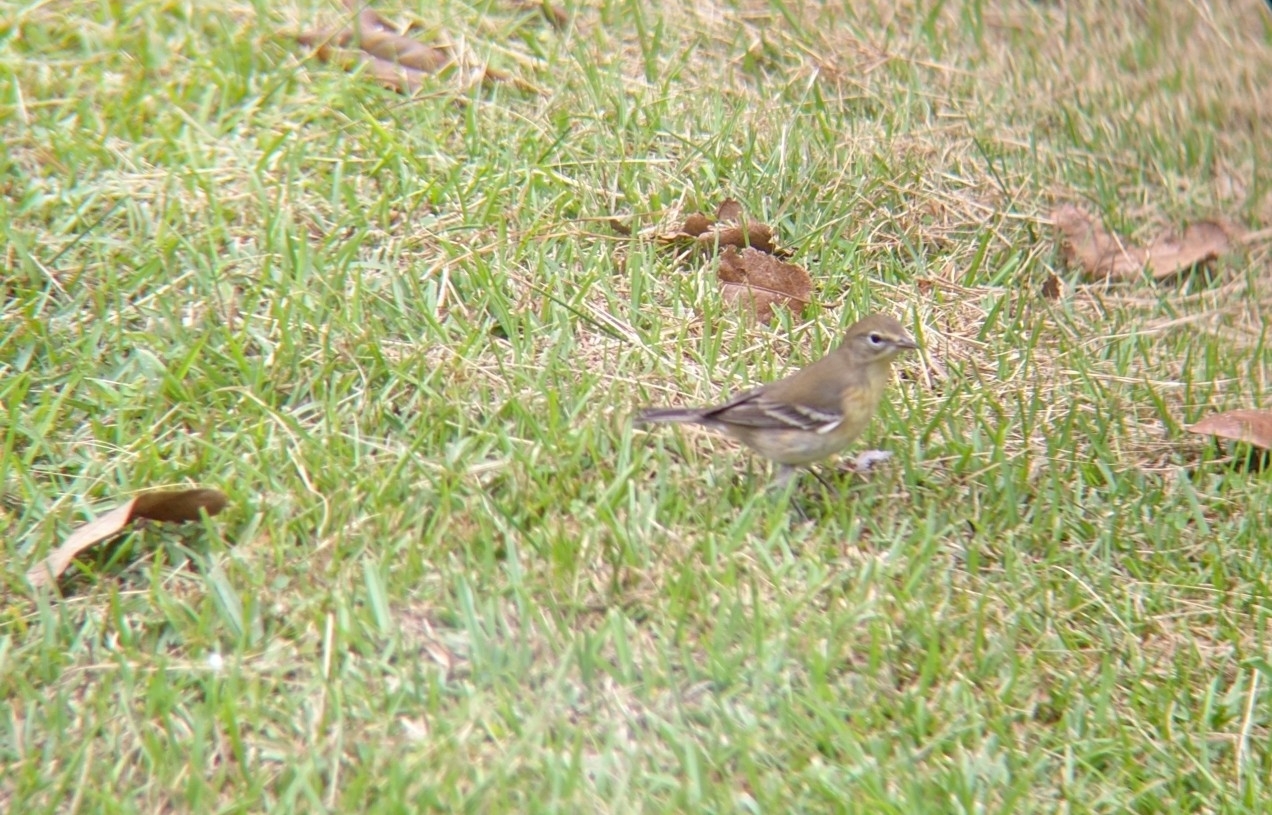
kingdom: Animalia
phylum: Chordata
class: Aves
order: Passeriformes
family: Parulidae
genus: Setophaga
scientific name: Setophaga pinus
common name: Pine warbler
